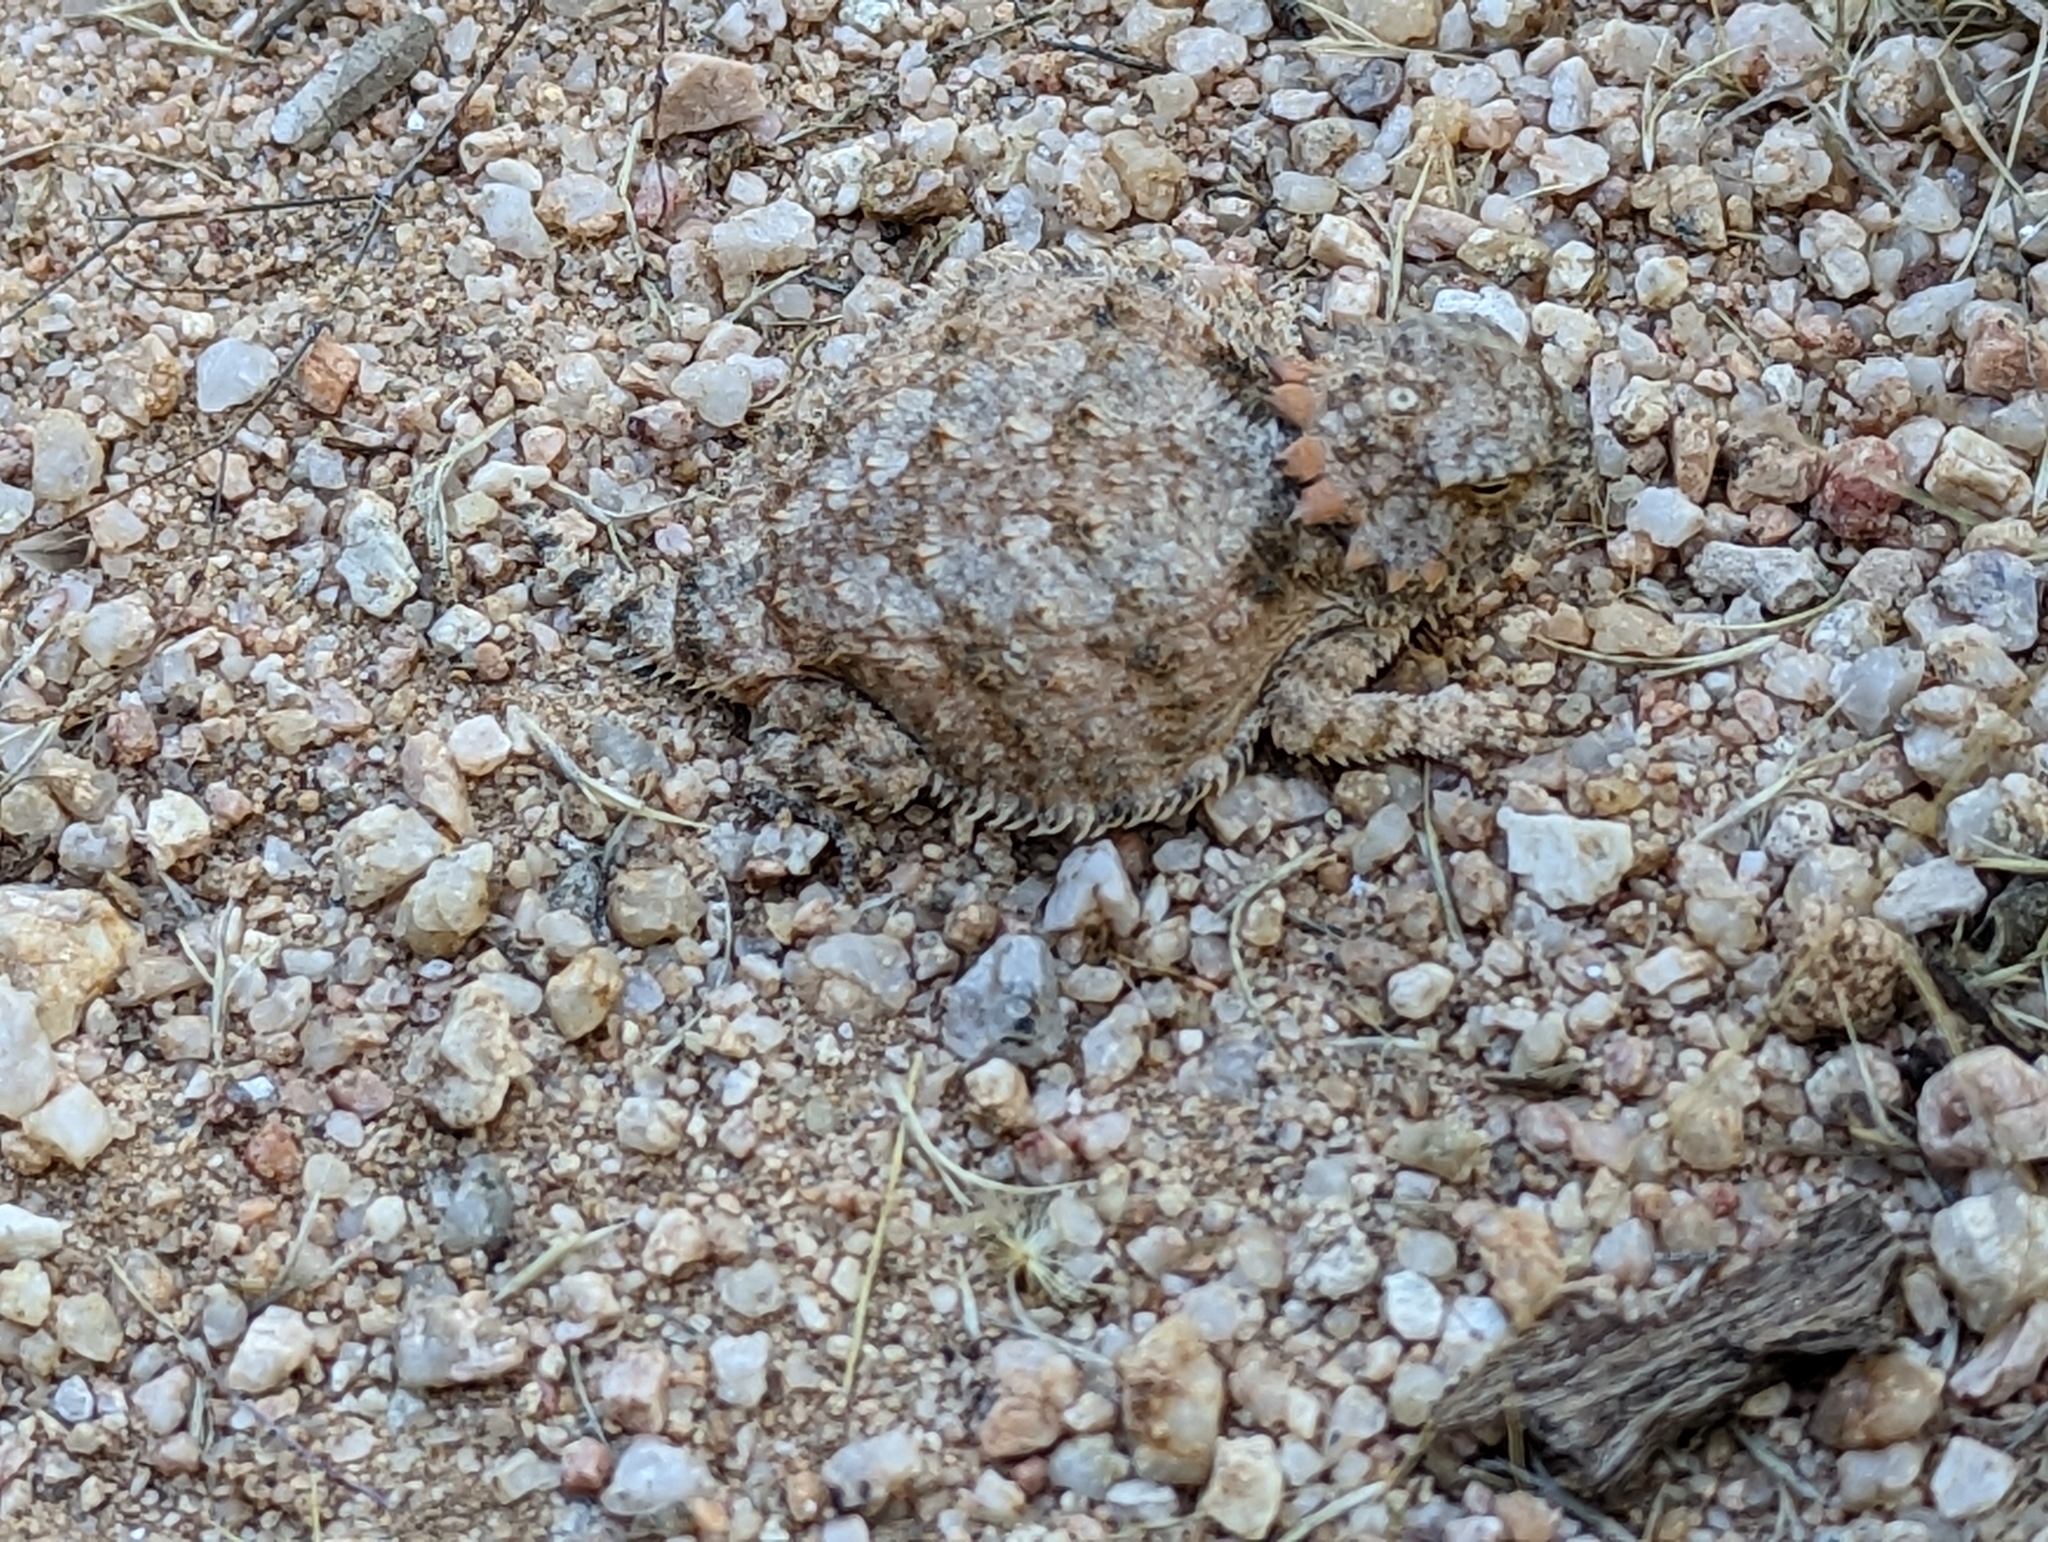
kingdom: Animalia
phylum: Chordata
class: Squamata
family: Phrynosomatidae
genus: Phrynosoma
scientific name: Phrynosoma solare
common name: Regal horned lizard
